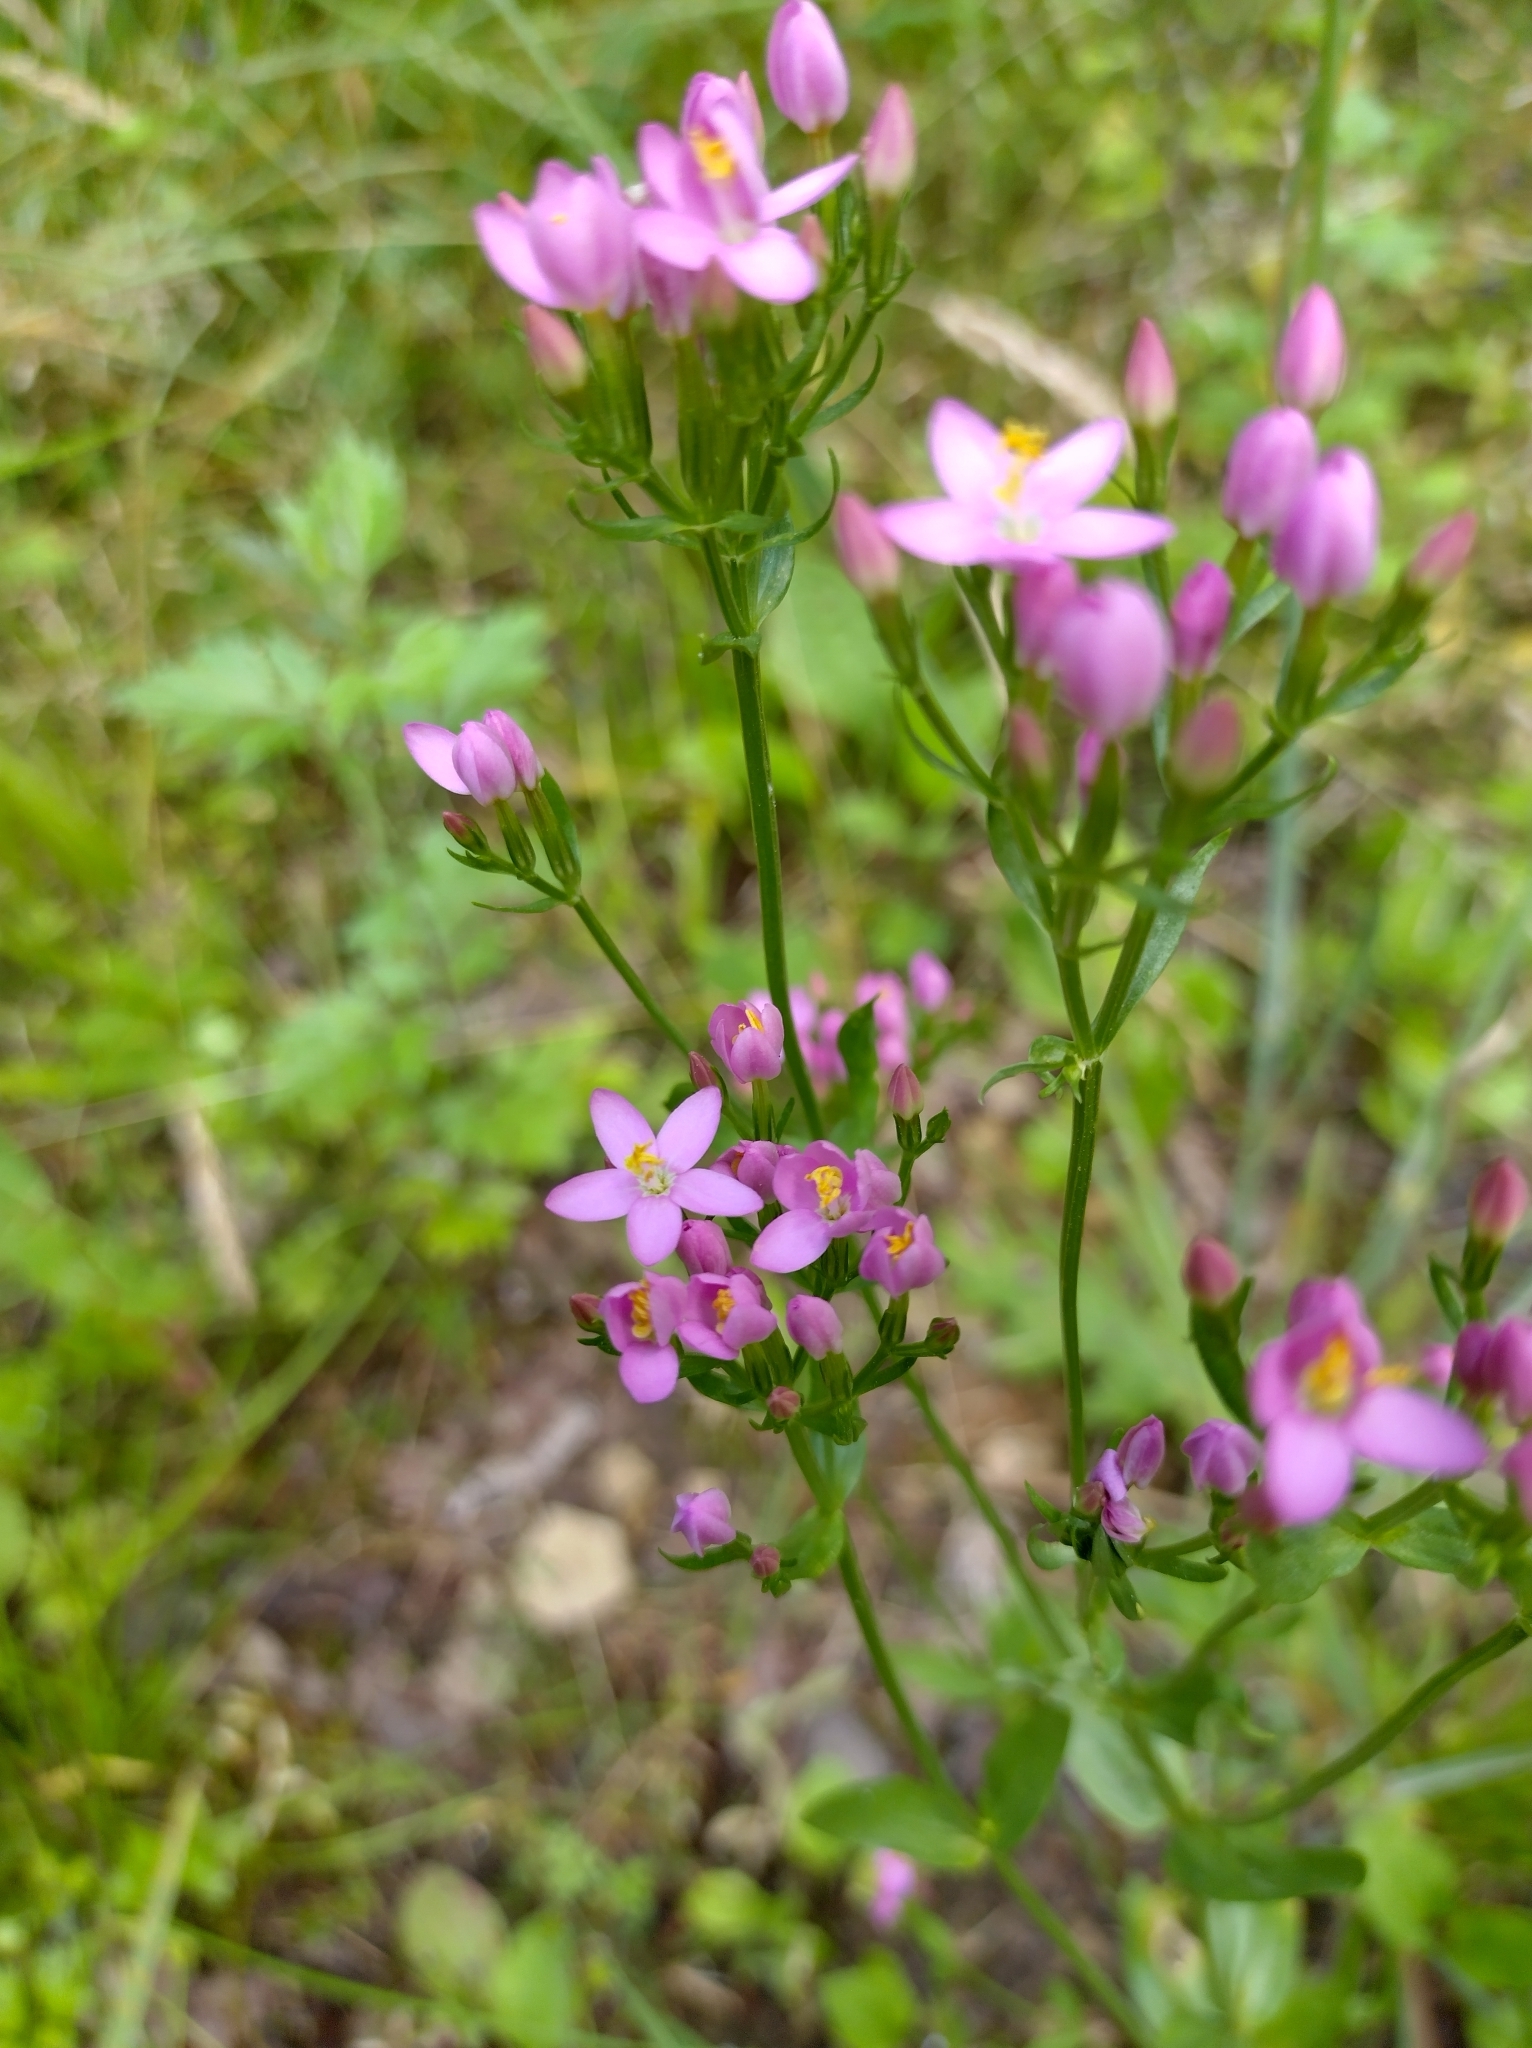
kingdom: Plantae
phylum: Tracheophyta
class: Magnoliopsida
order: Gentianales
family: Gentianaceae
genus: Centaurium
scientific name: Centaurium erythraea
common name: Common centaury
